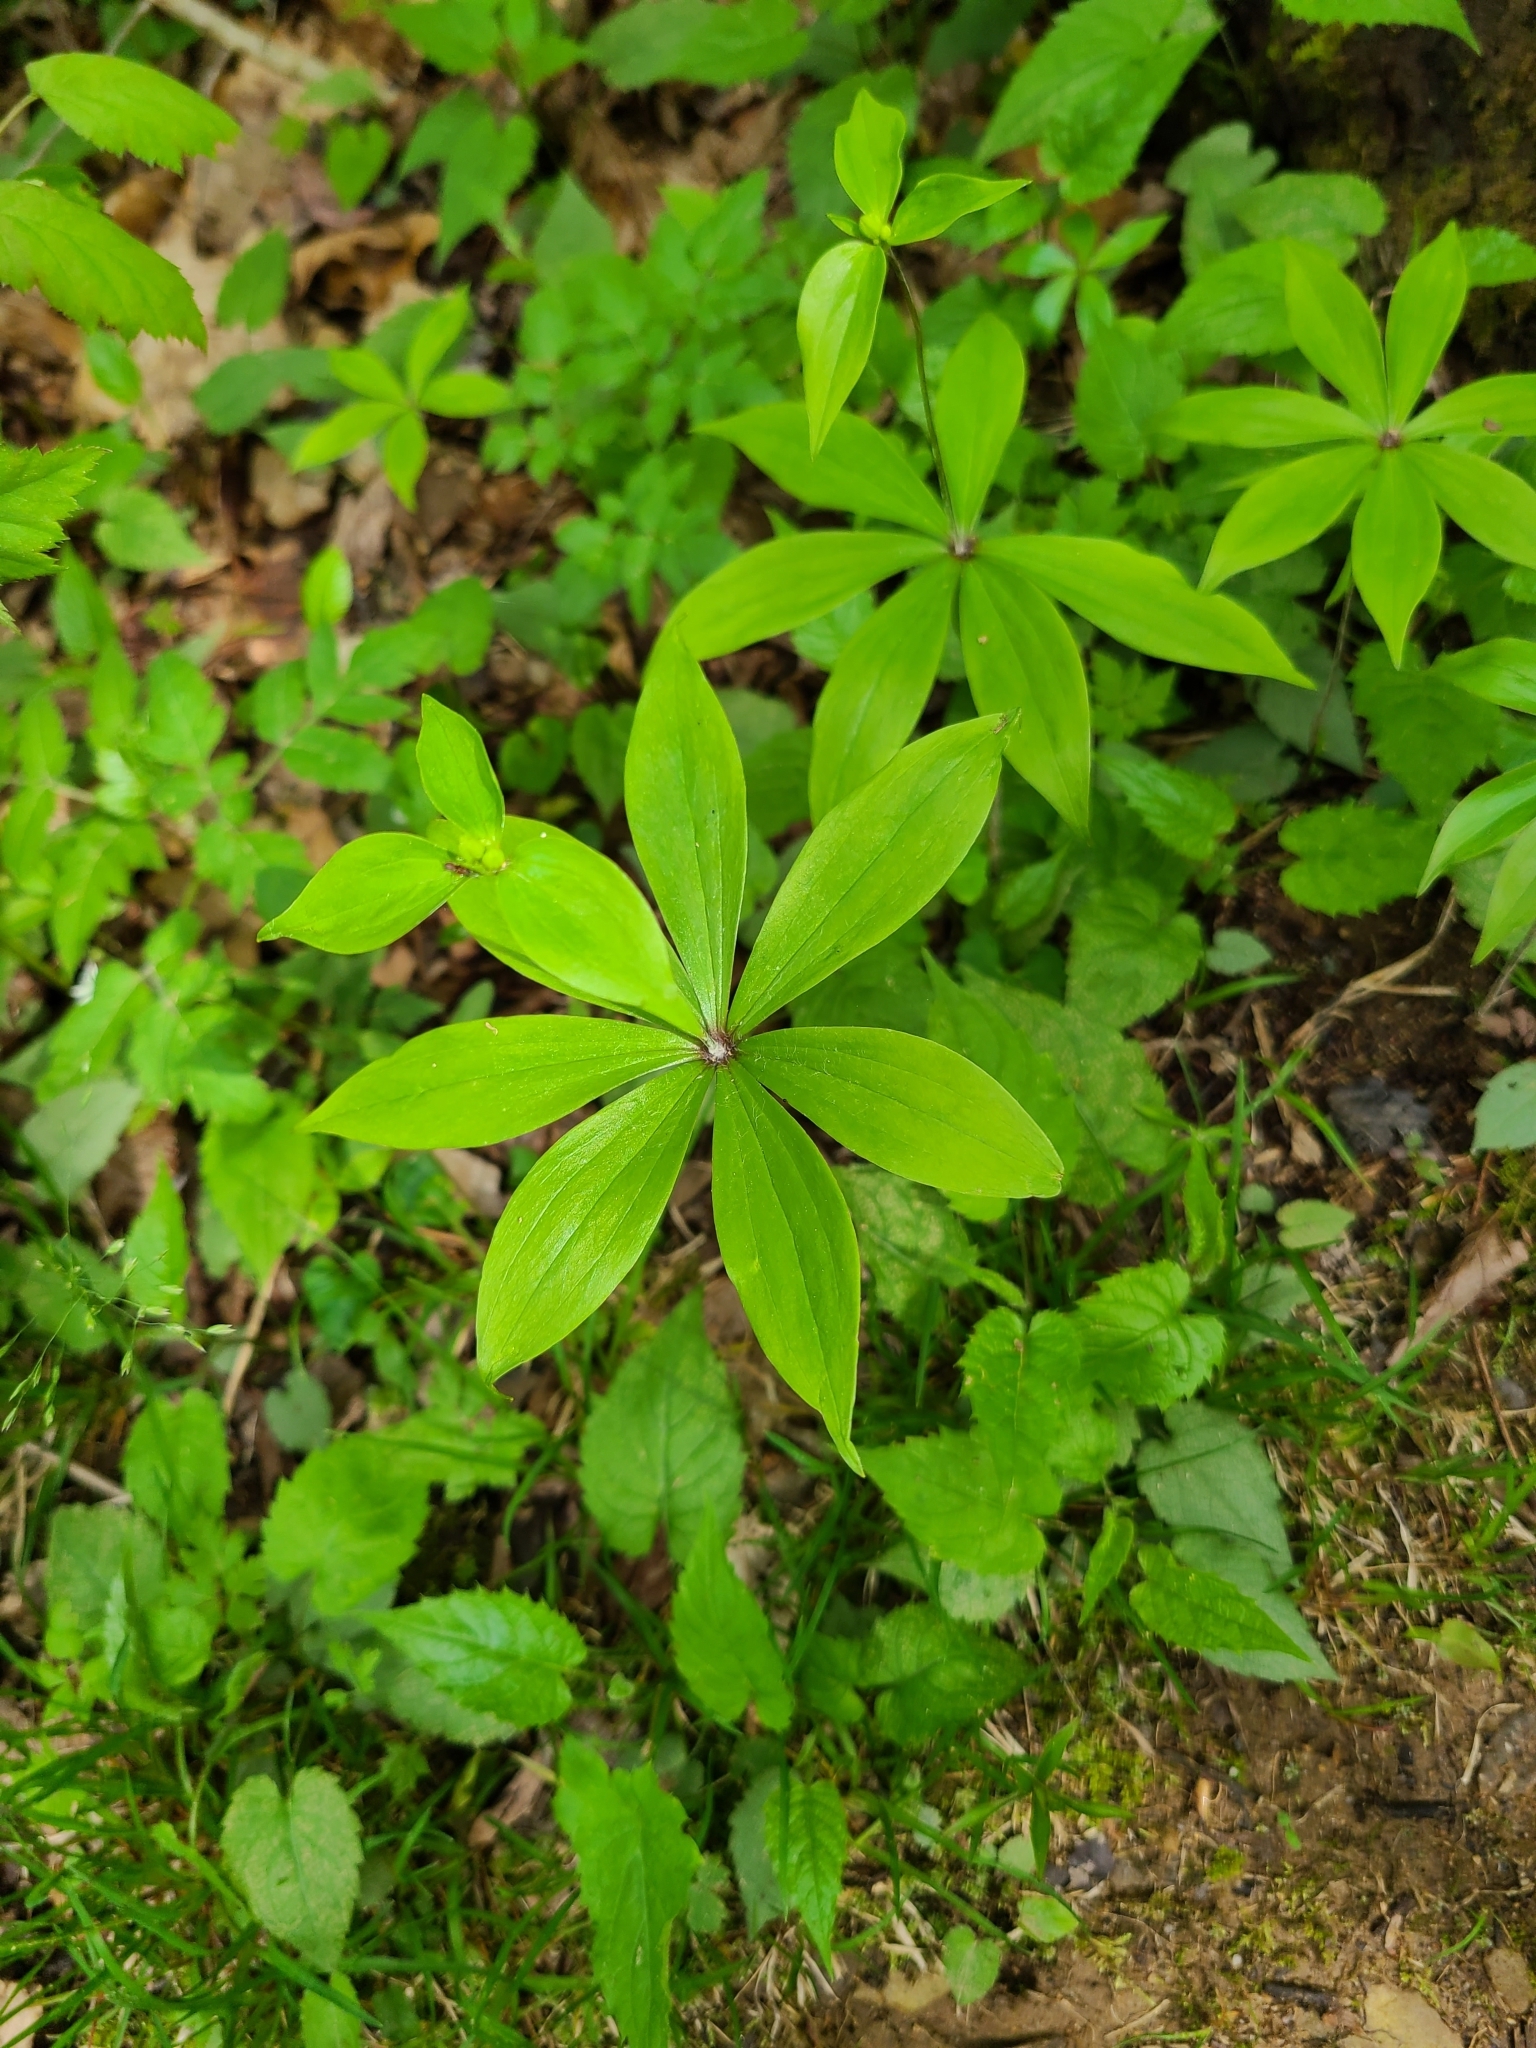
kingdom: Plantae
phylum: Tracheophyta
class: Liliopsida
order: Liliales
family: Liliaceae
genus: Medeola
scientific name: Medeola virginiana
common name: Indian cucumber-root
